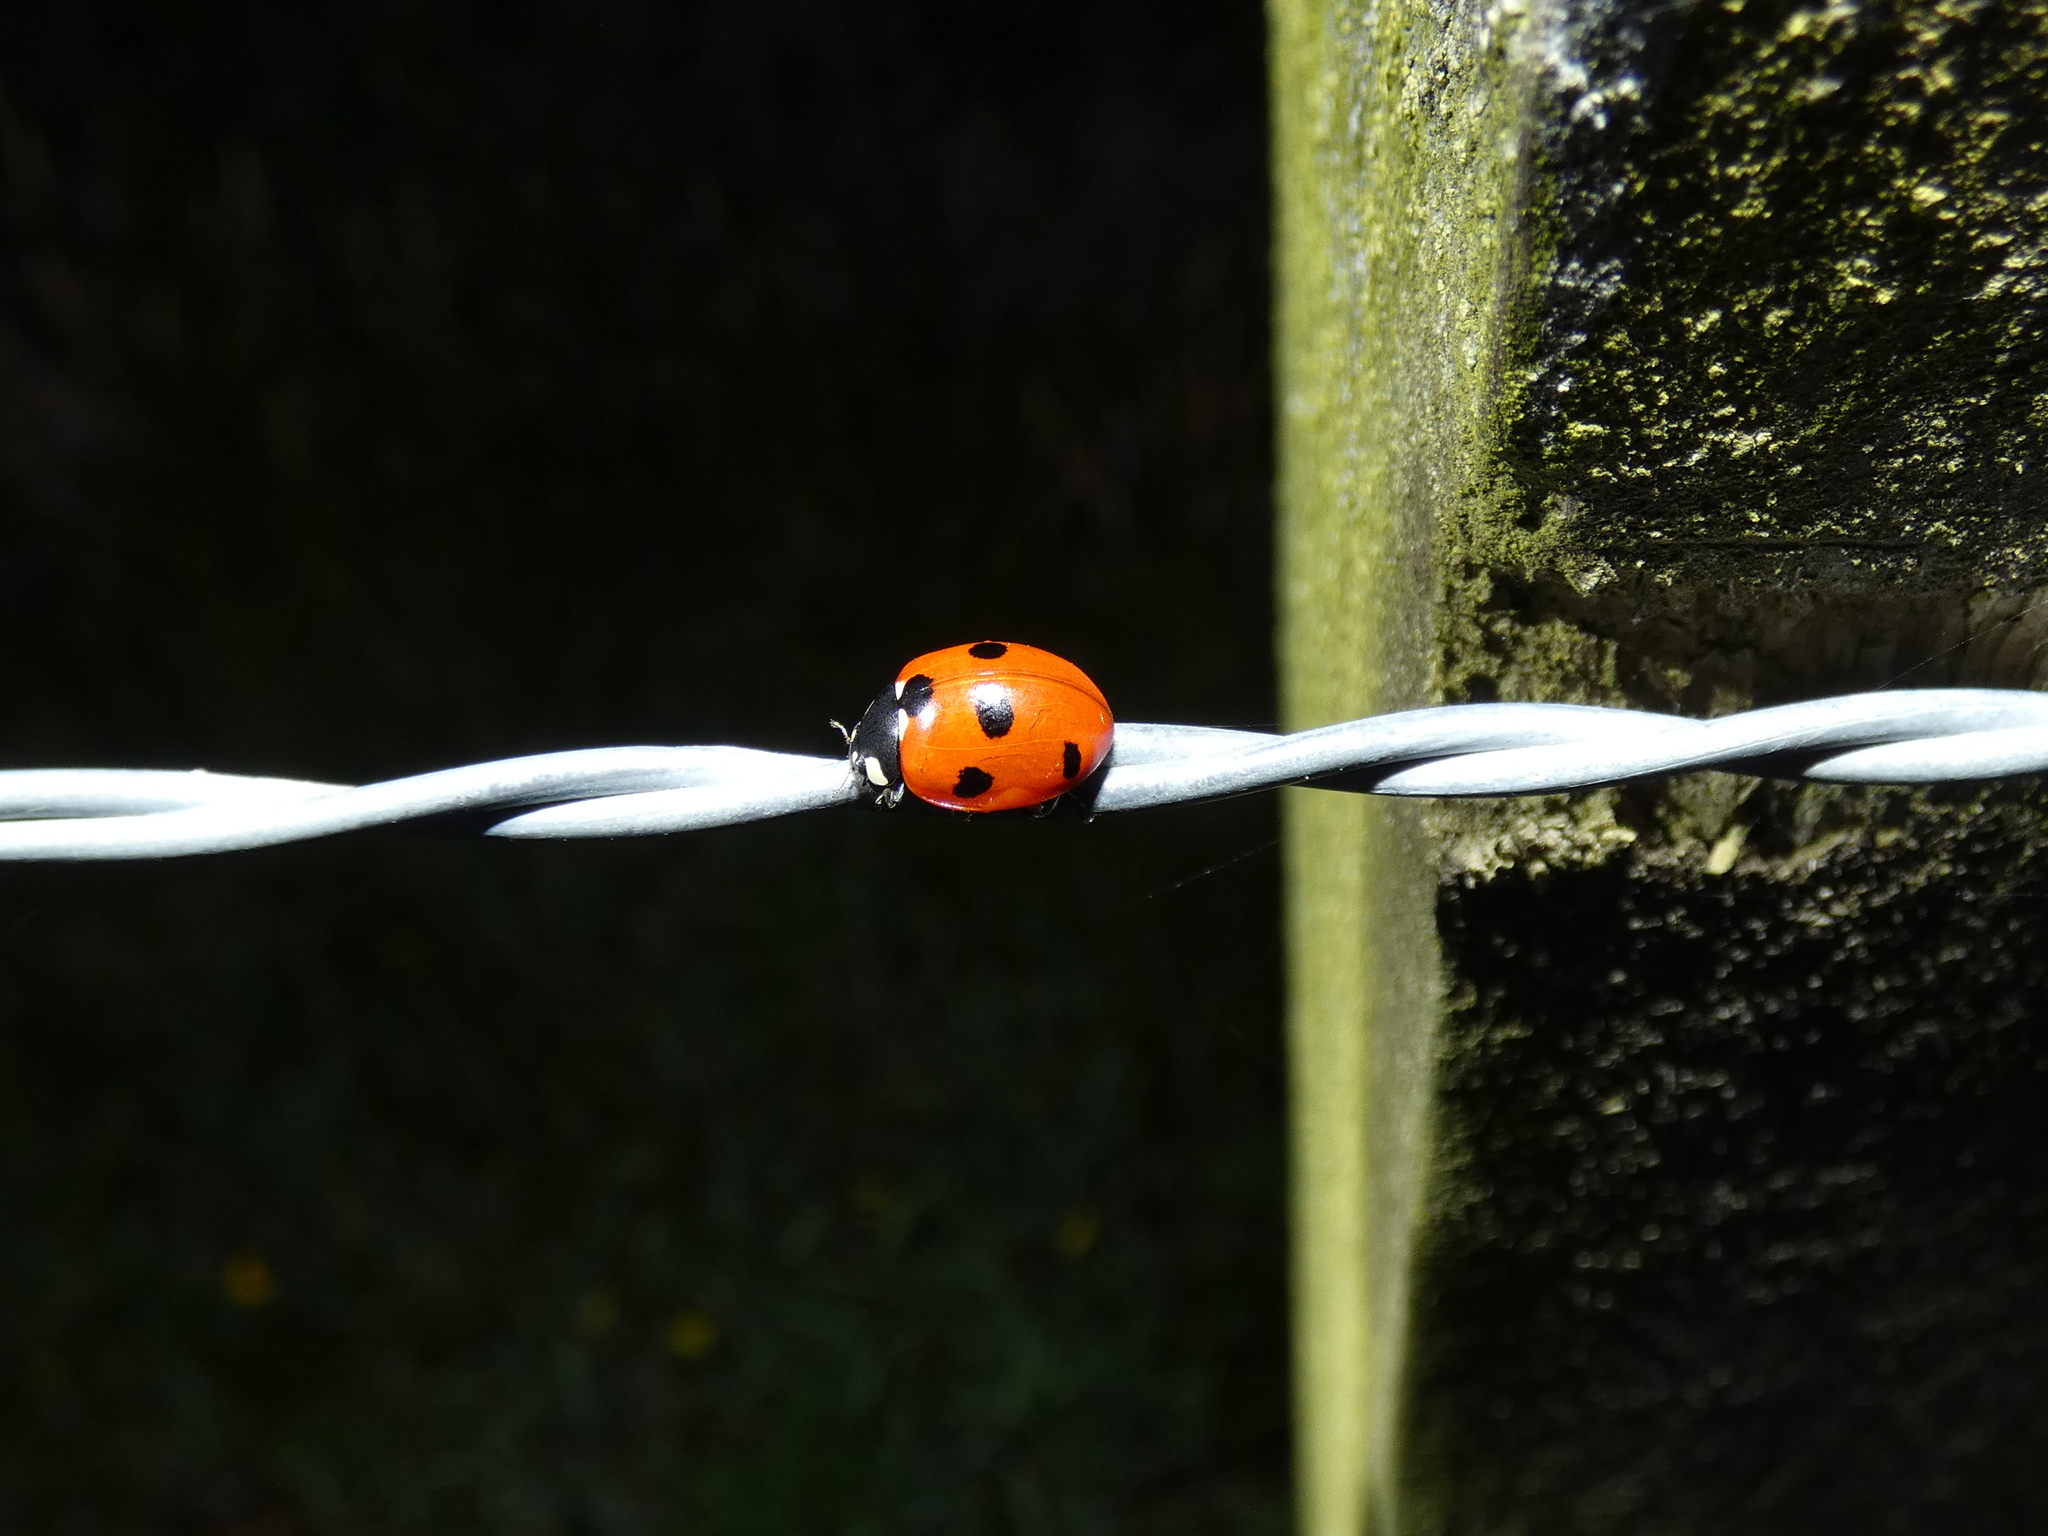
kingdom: Animalia
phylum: Arthropoda
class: Insecta
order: Coleoptera
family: Coccinellidae
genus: Coccinella
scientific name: Coccinella septempunctata
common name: Sevenspotted lady beetle
